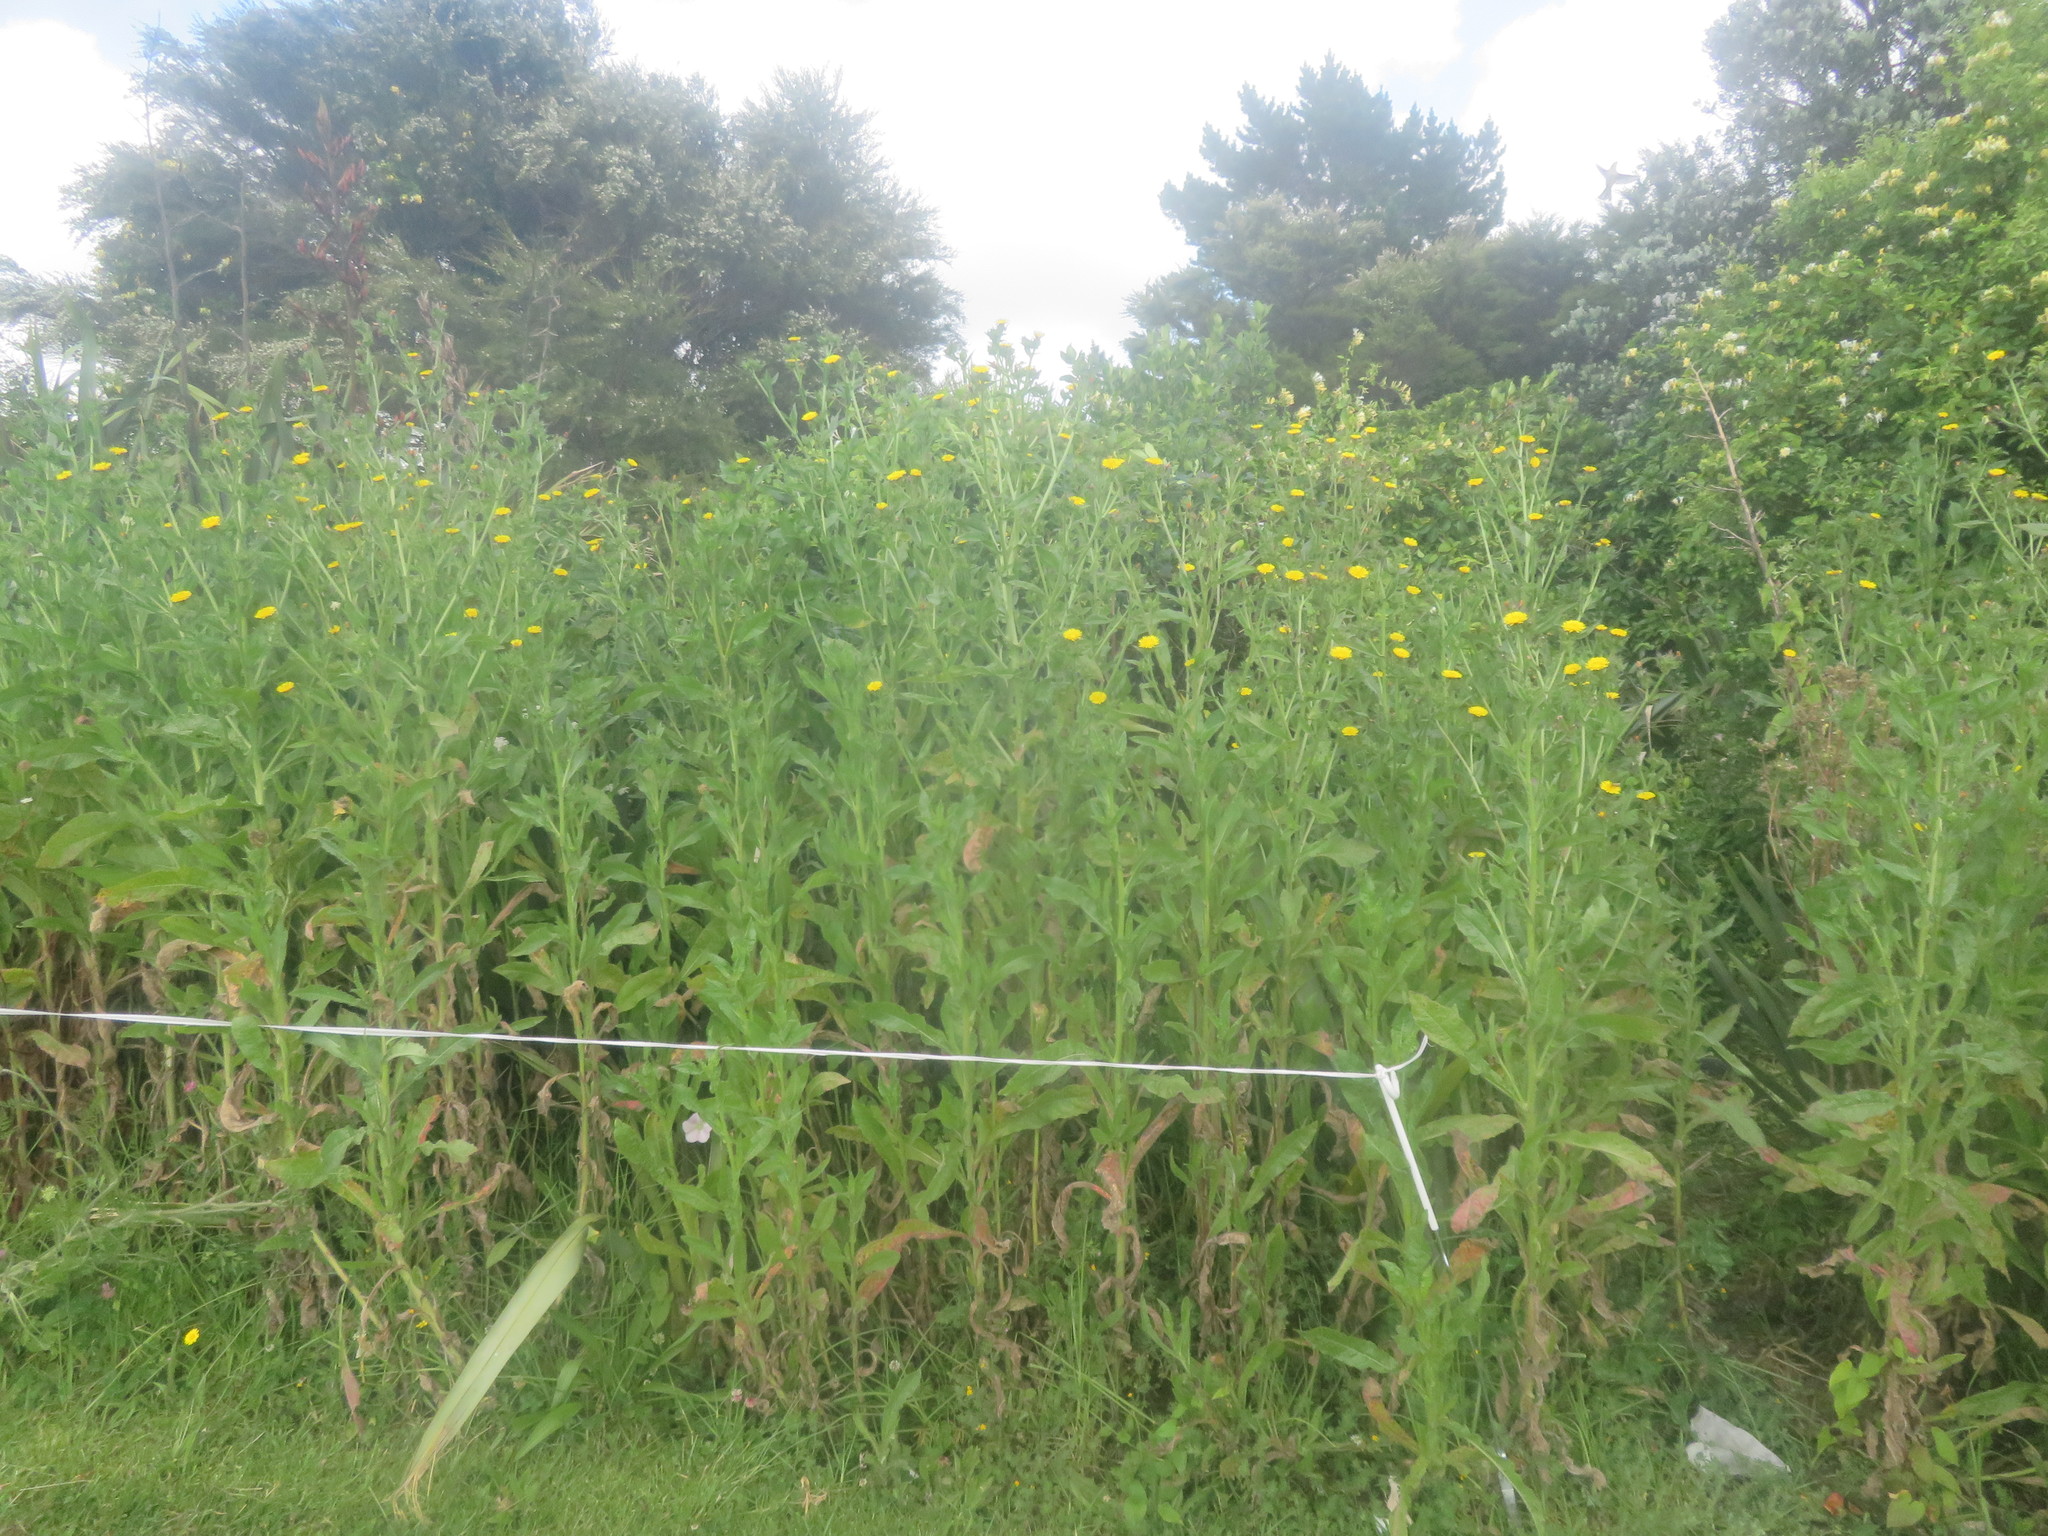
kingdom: Plantae
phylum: Tracheophyta
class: Magnoliopsida
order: Asterales
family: Asteraceae
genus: Helminthotheca
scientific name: Helminthotheca echioides
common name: Ox-tongue
